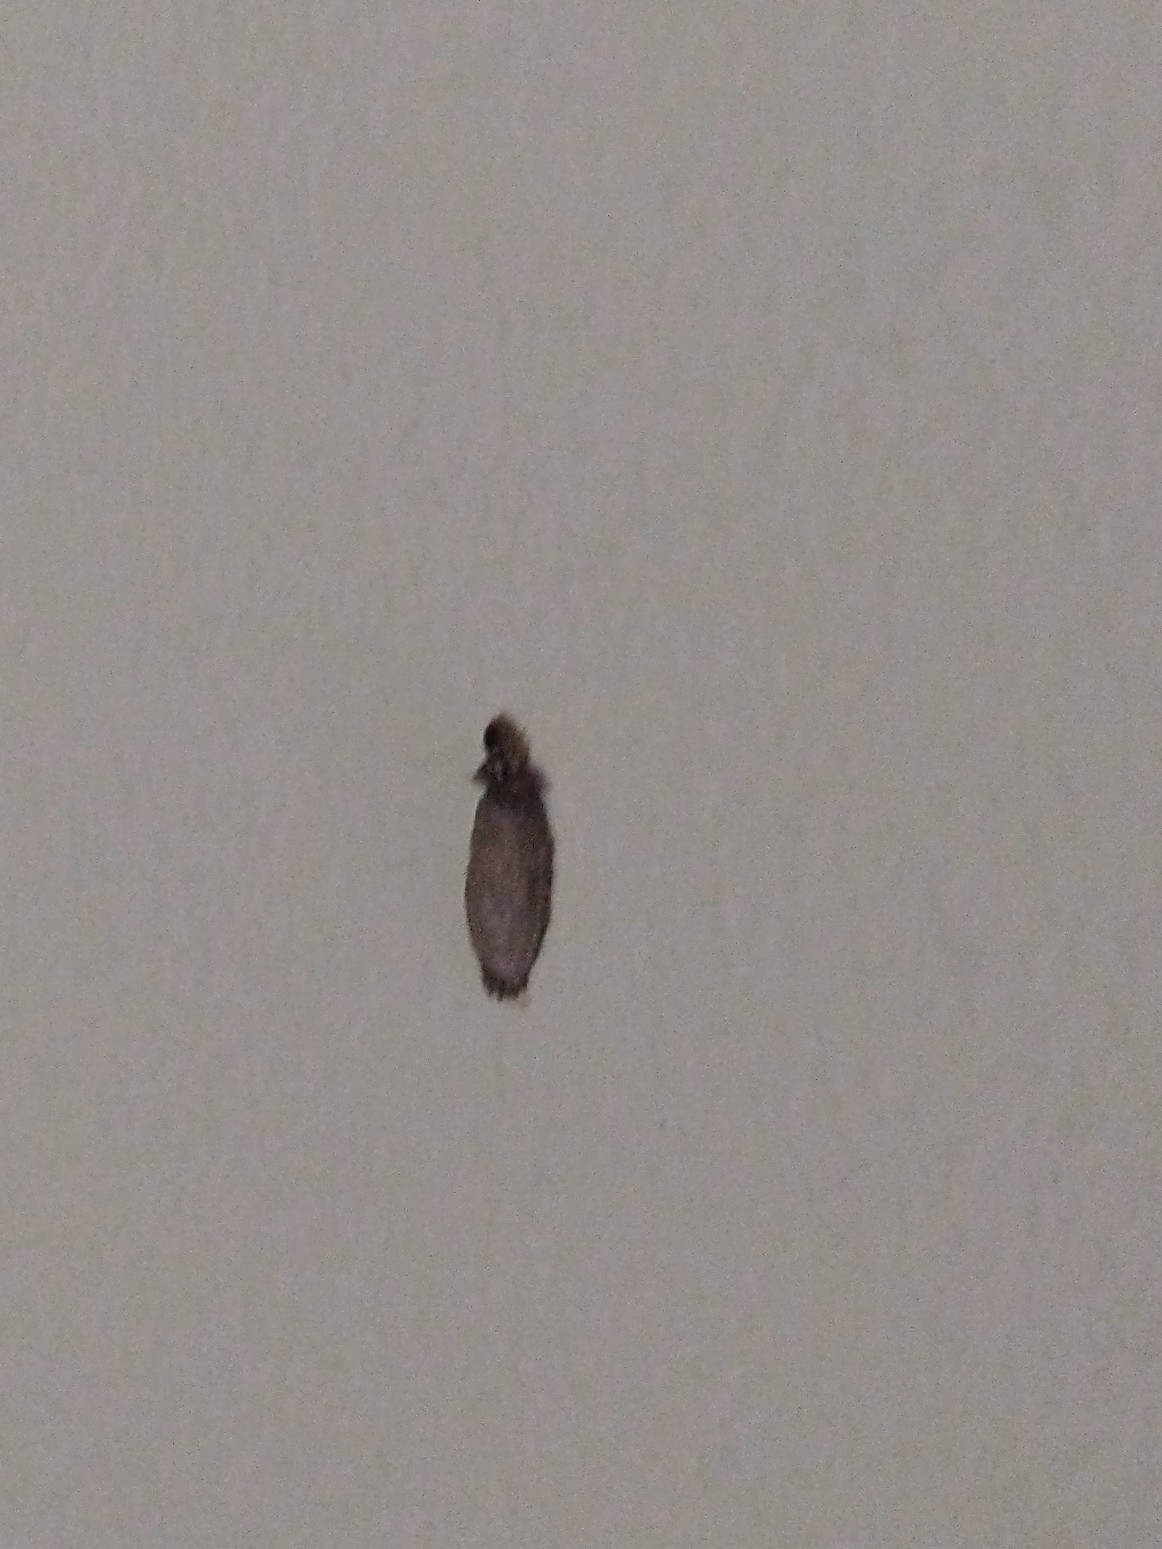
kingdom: Animalia
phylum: Arthropoda
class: Insecta
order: Lepidoptera
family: Tineidae
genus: Phereoeca
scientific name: Phereoeca uterella
